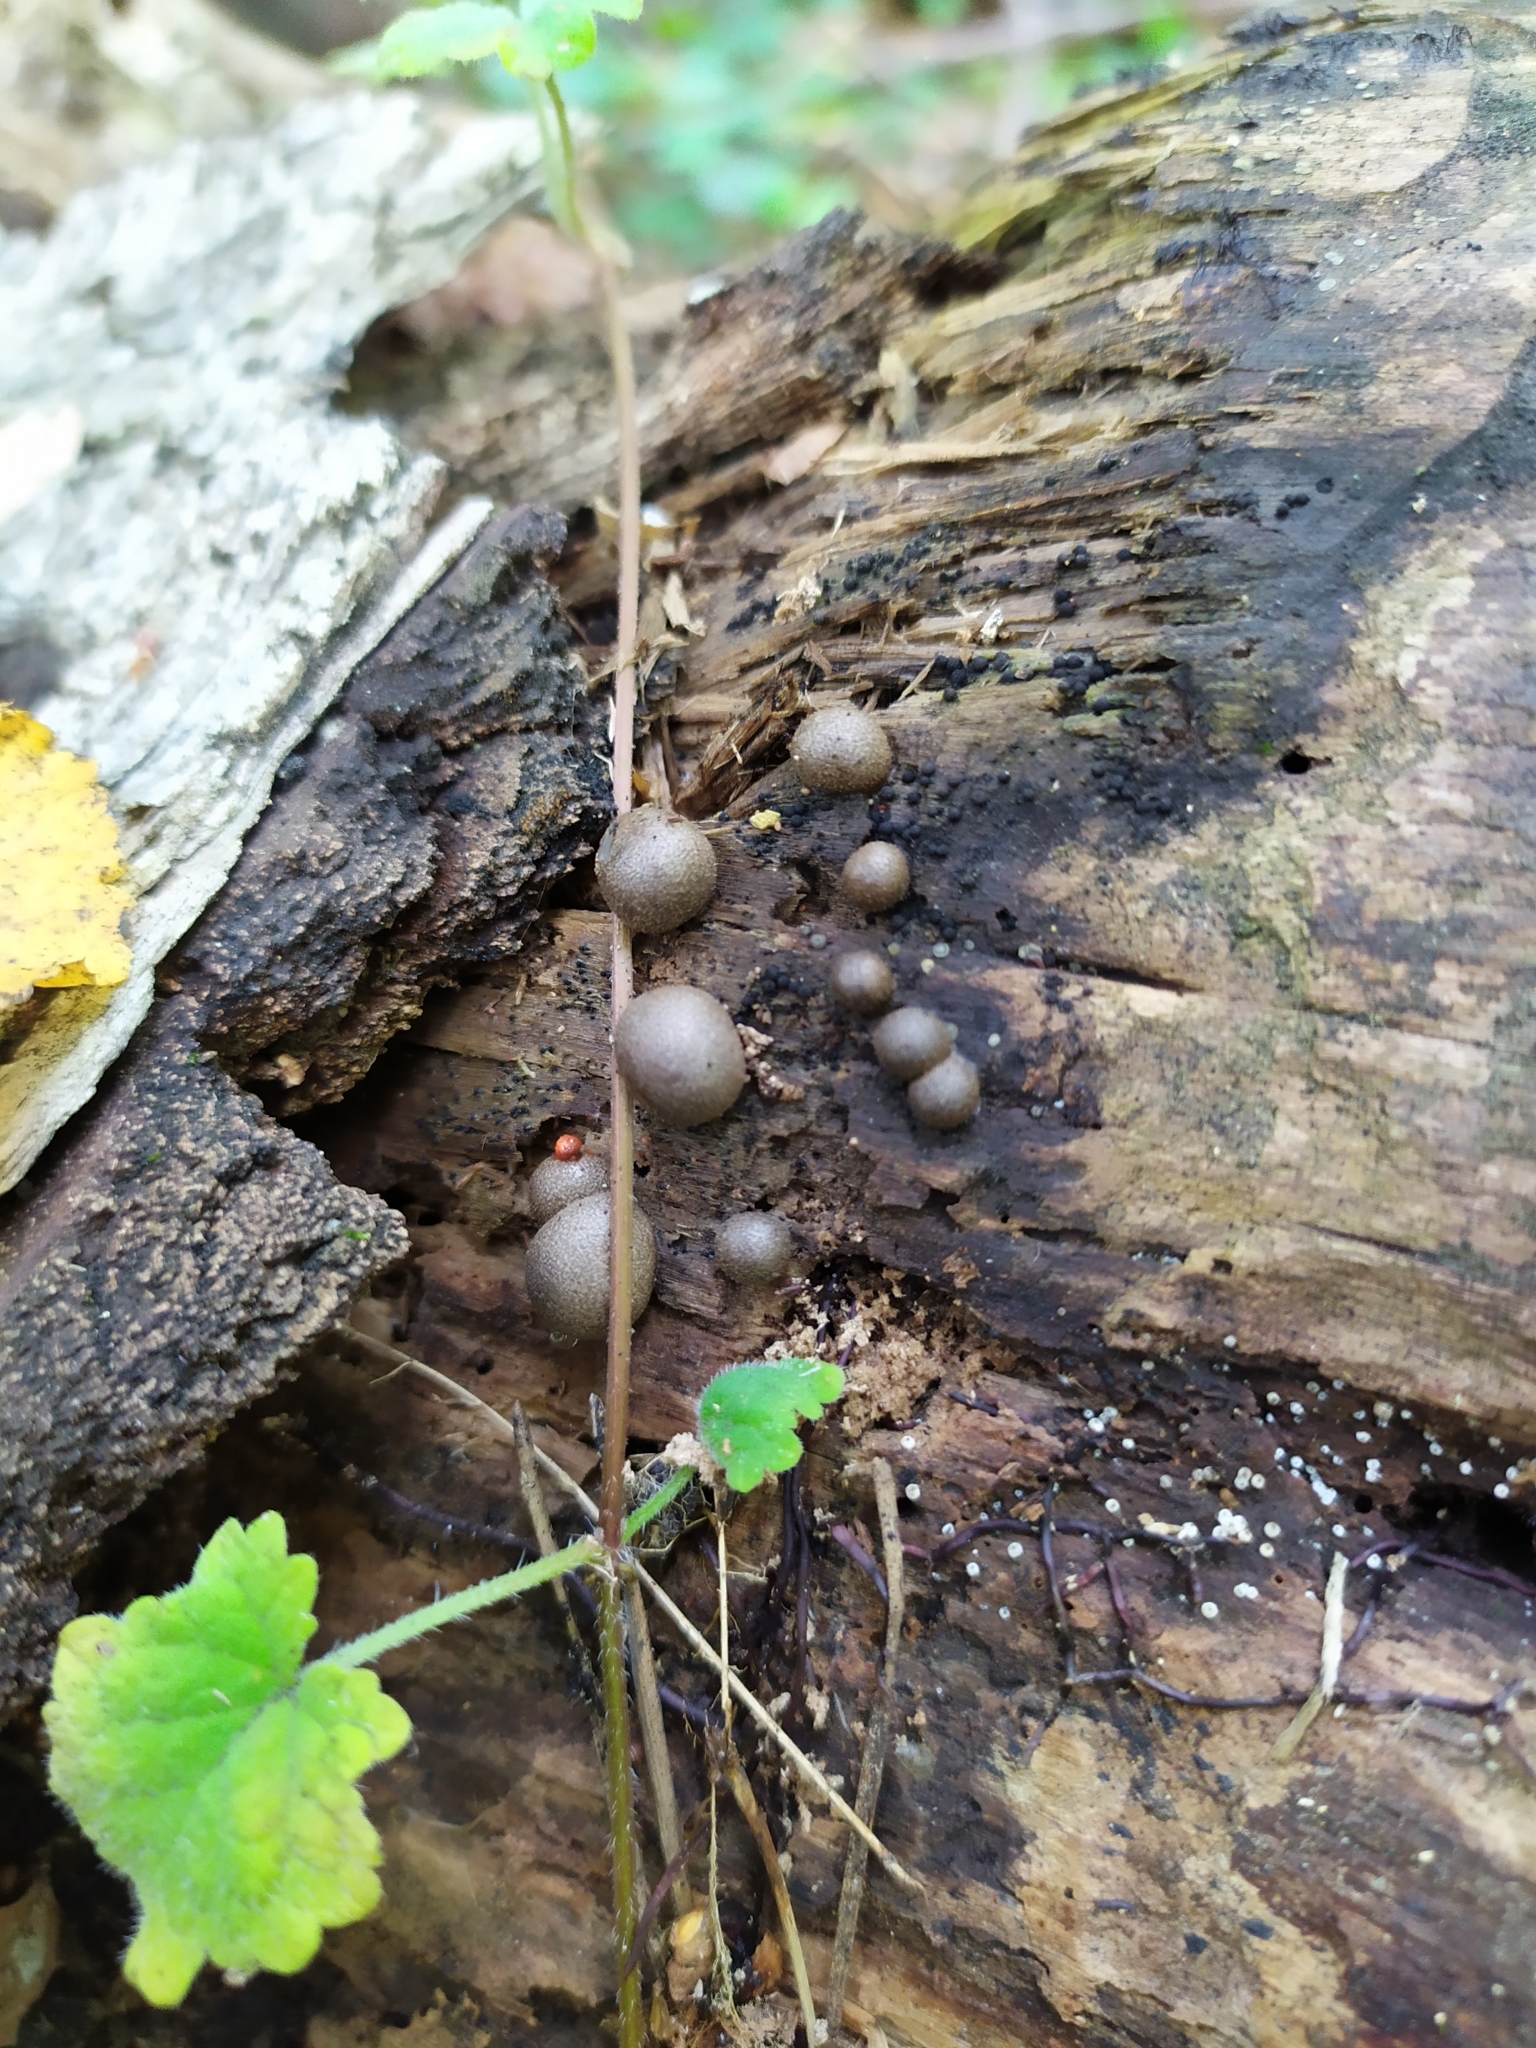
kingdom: Protozoa
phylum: Mycetozoa
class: Myxomycetes
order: Cribrariales
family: Tubiferaceae
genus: Lycogala
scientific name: Lycogala epidendrum
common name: Wolf's milk
